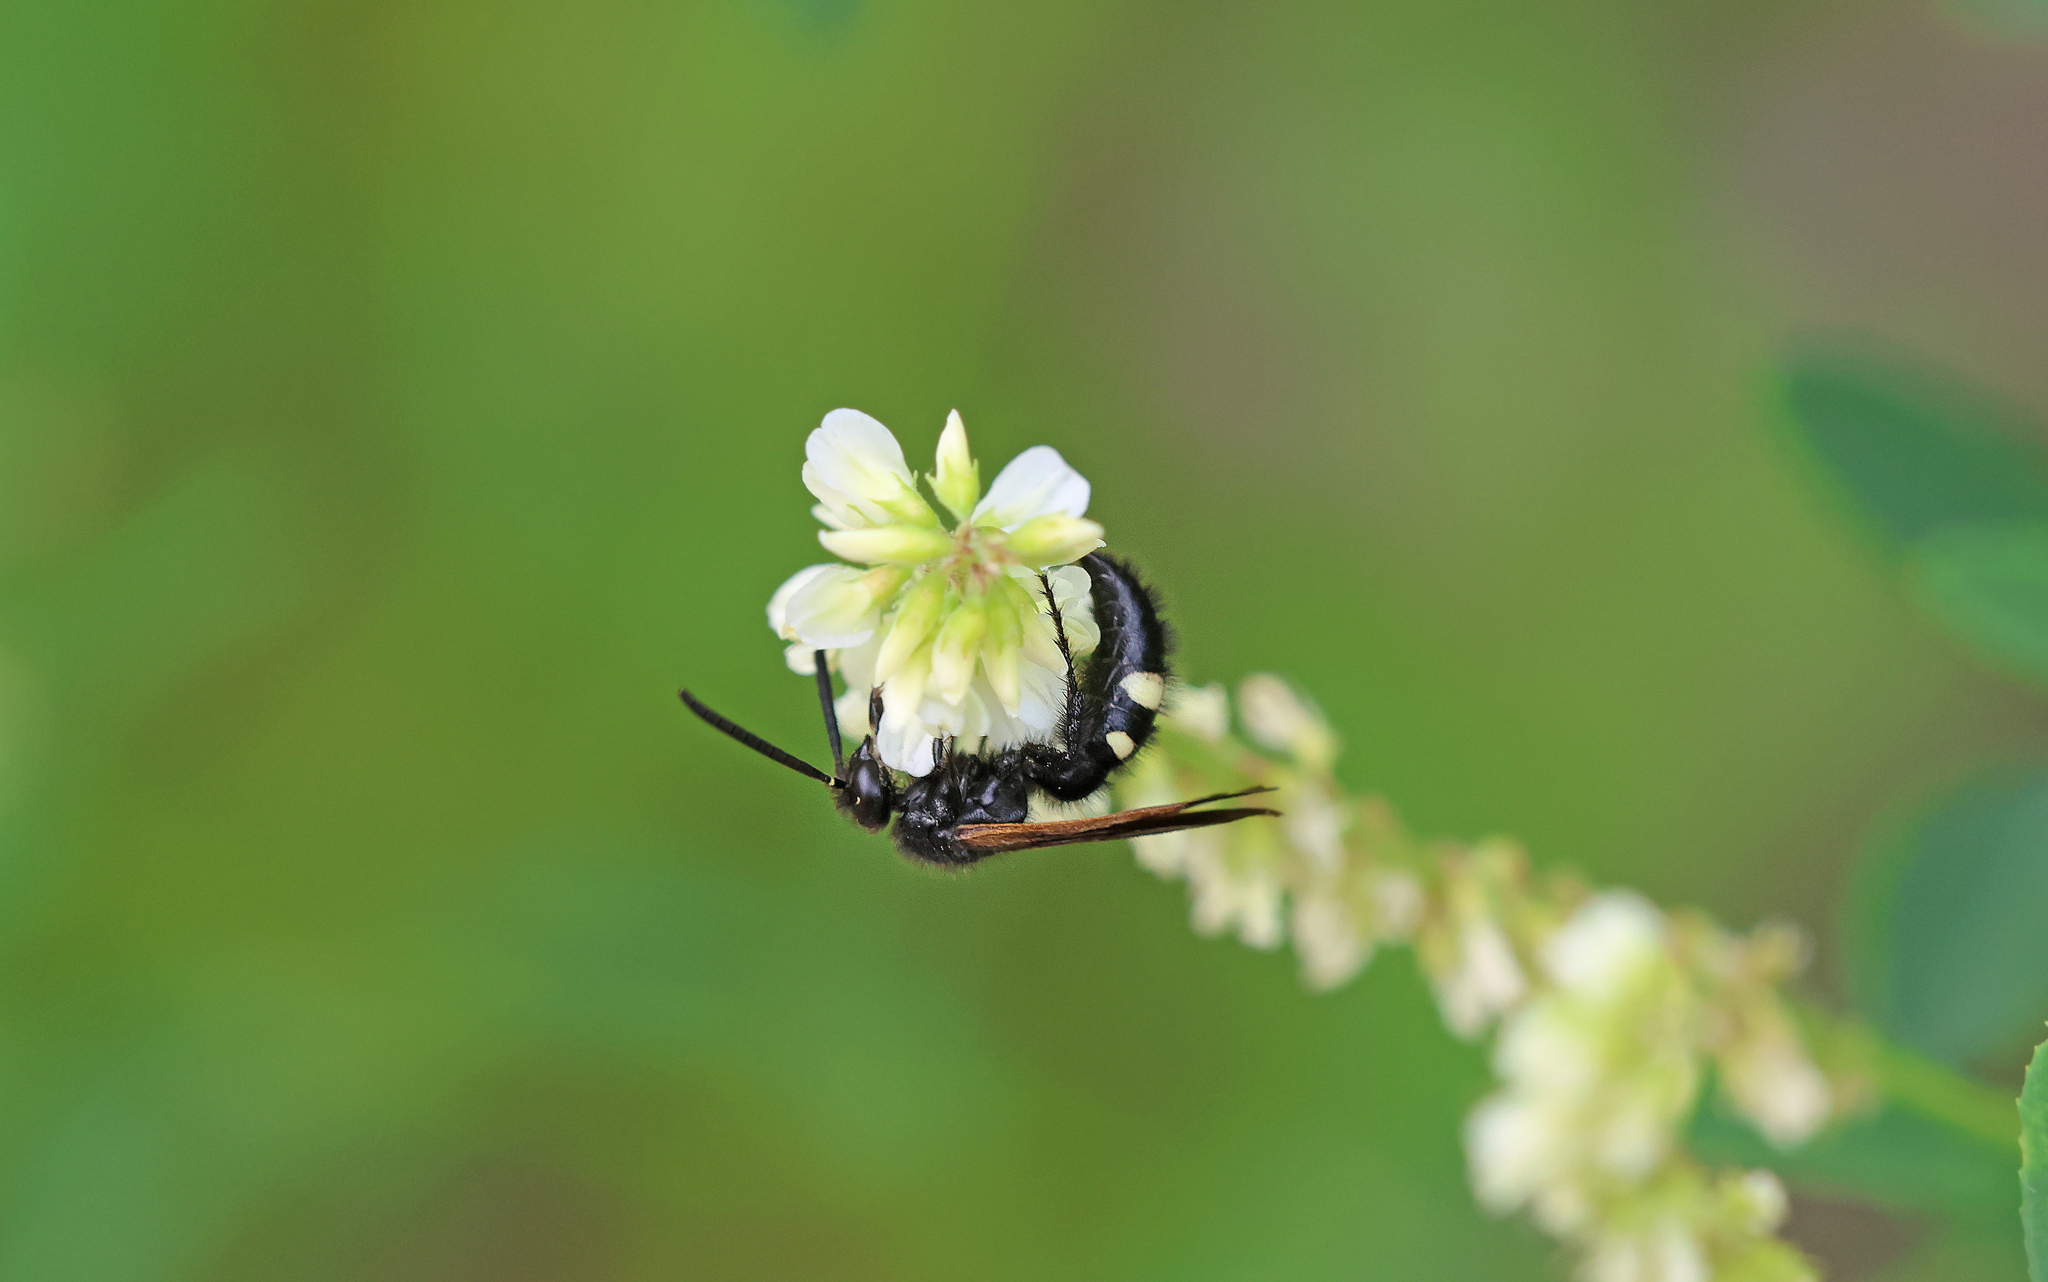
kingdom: Animalia
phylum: Arthropoda
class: Insecta
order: Hymenoptera
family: Vespidae
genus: Vespa
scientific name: Vespa sexmaculata
